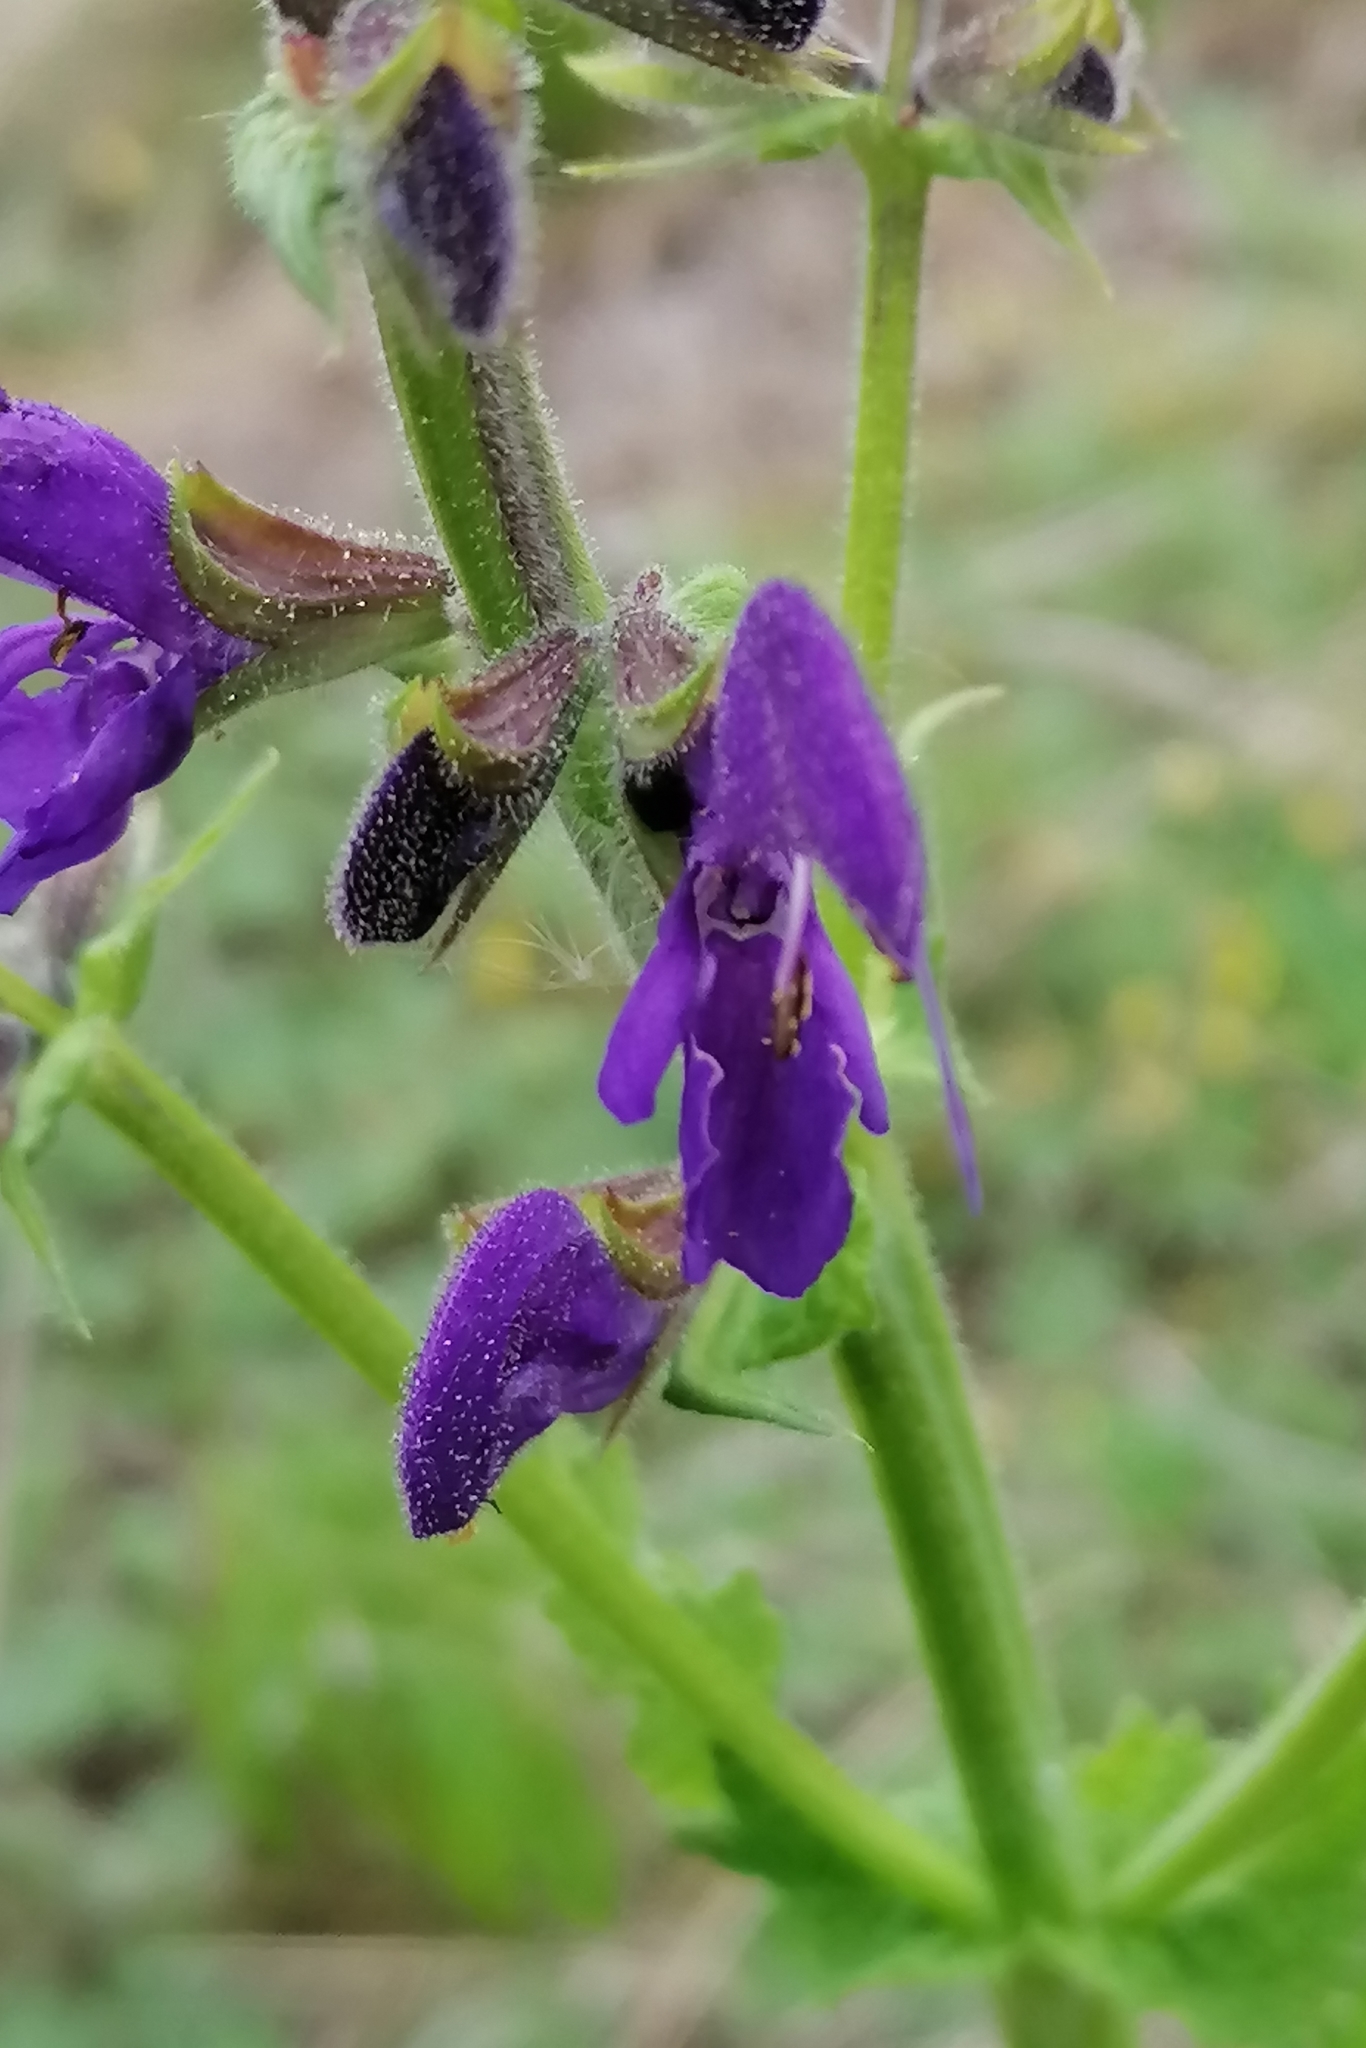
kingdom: Plantae
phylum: Tracheophyta
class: Magnoliopsida
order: Lamiales
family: Lamiaceae
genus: Salvia
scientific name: Salvia pratensis
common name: Meadow sage
